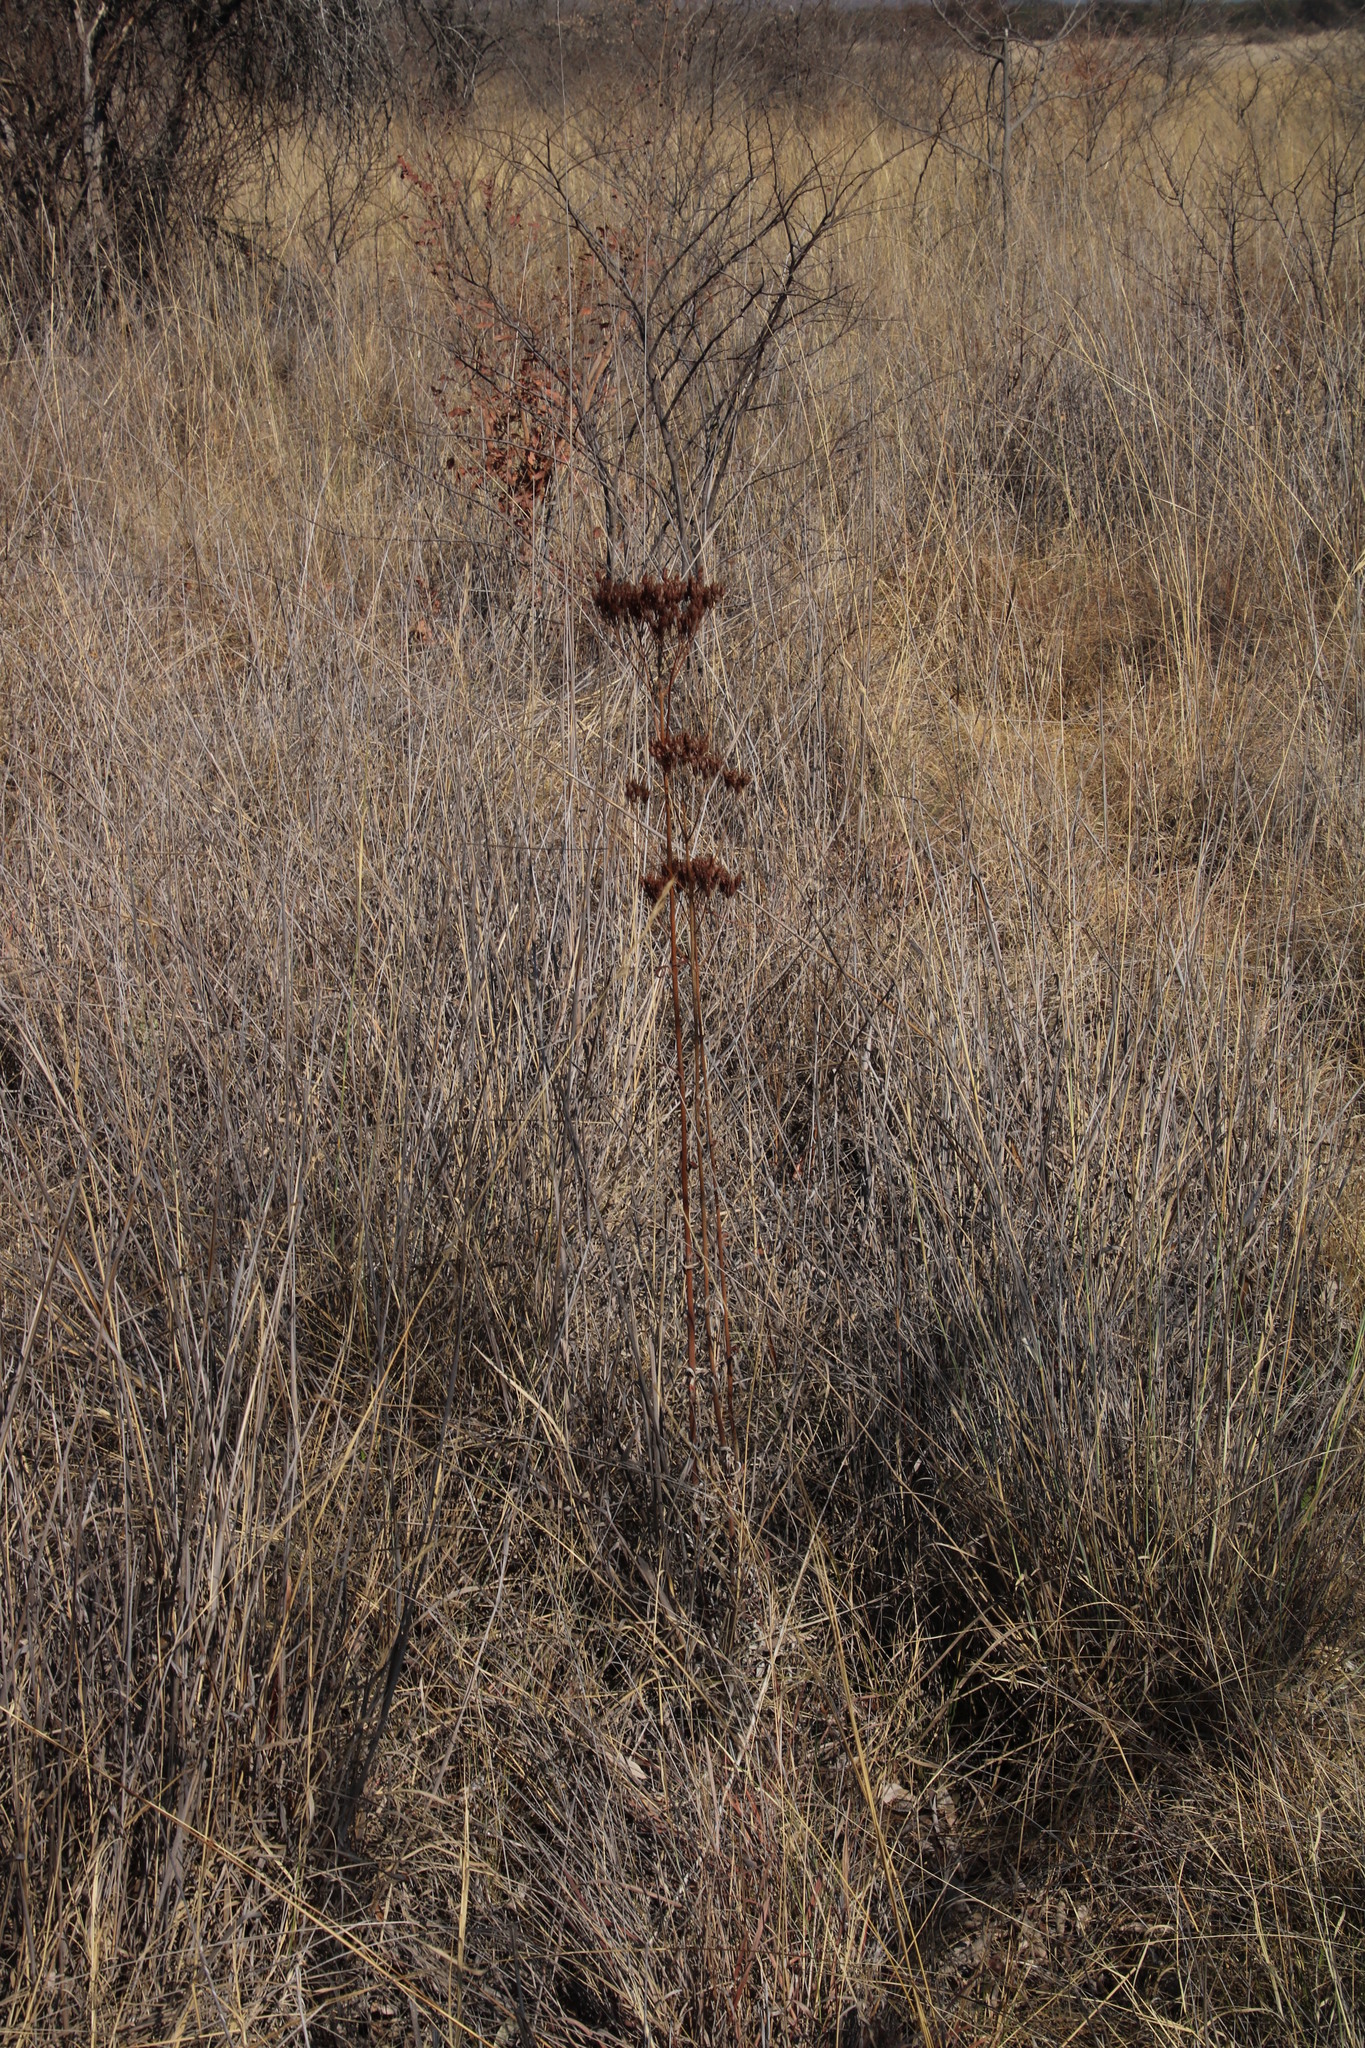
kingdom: Plantae
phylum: Tracheophyta
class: Magnoliopsida
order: Saxifragales
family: Crassulaceae
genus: Kalanchoe
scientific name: Kalanchoe brachyloba
